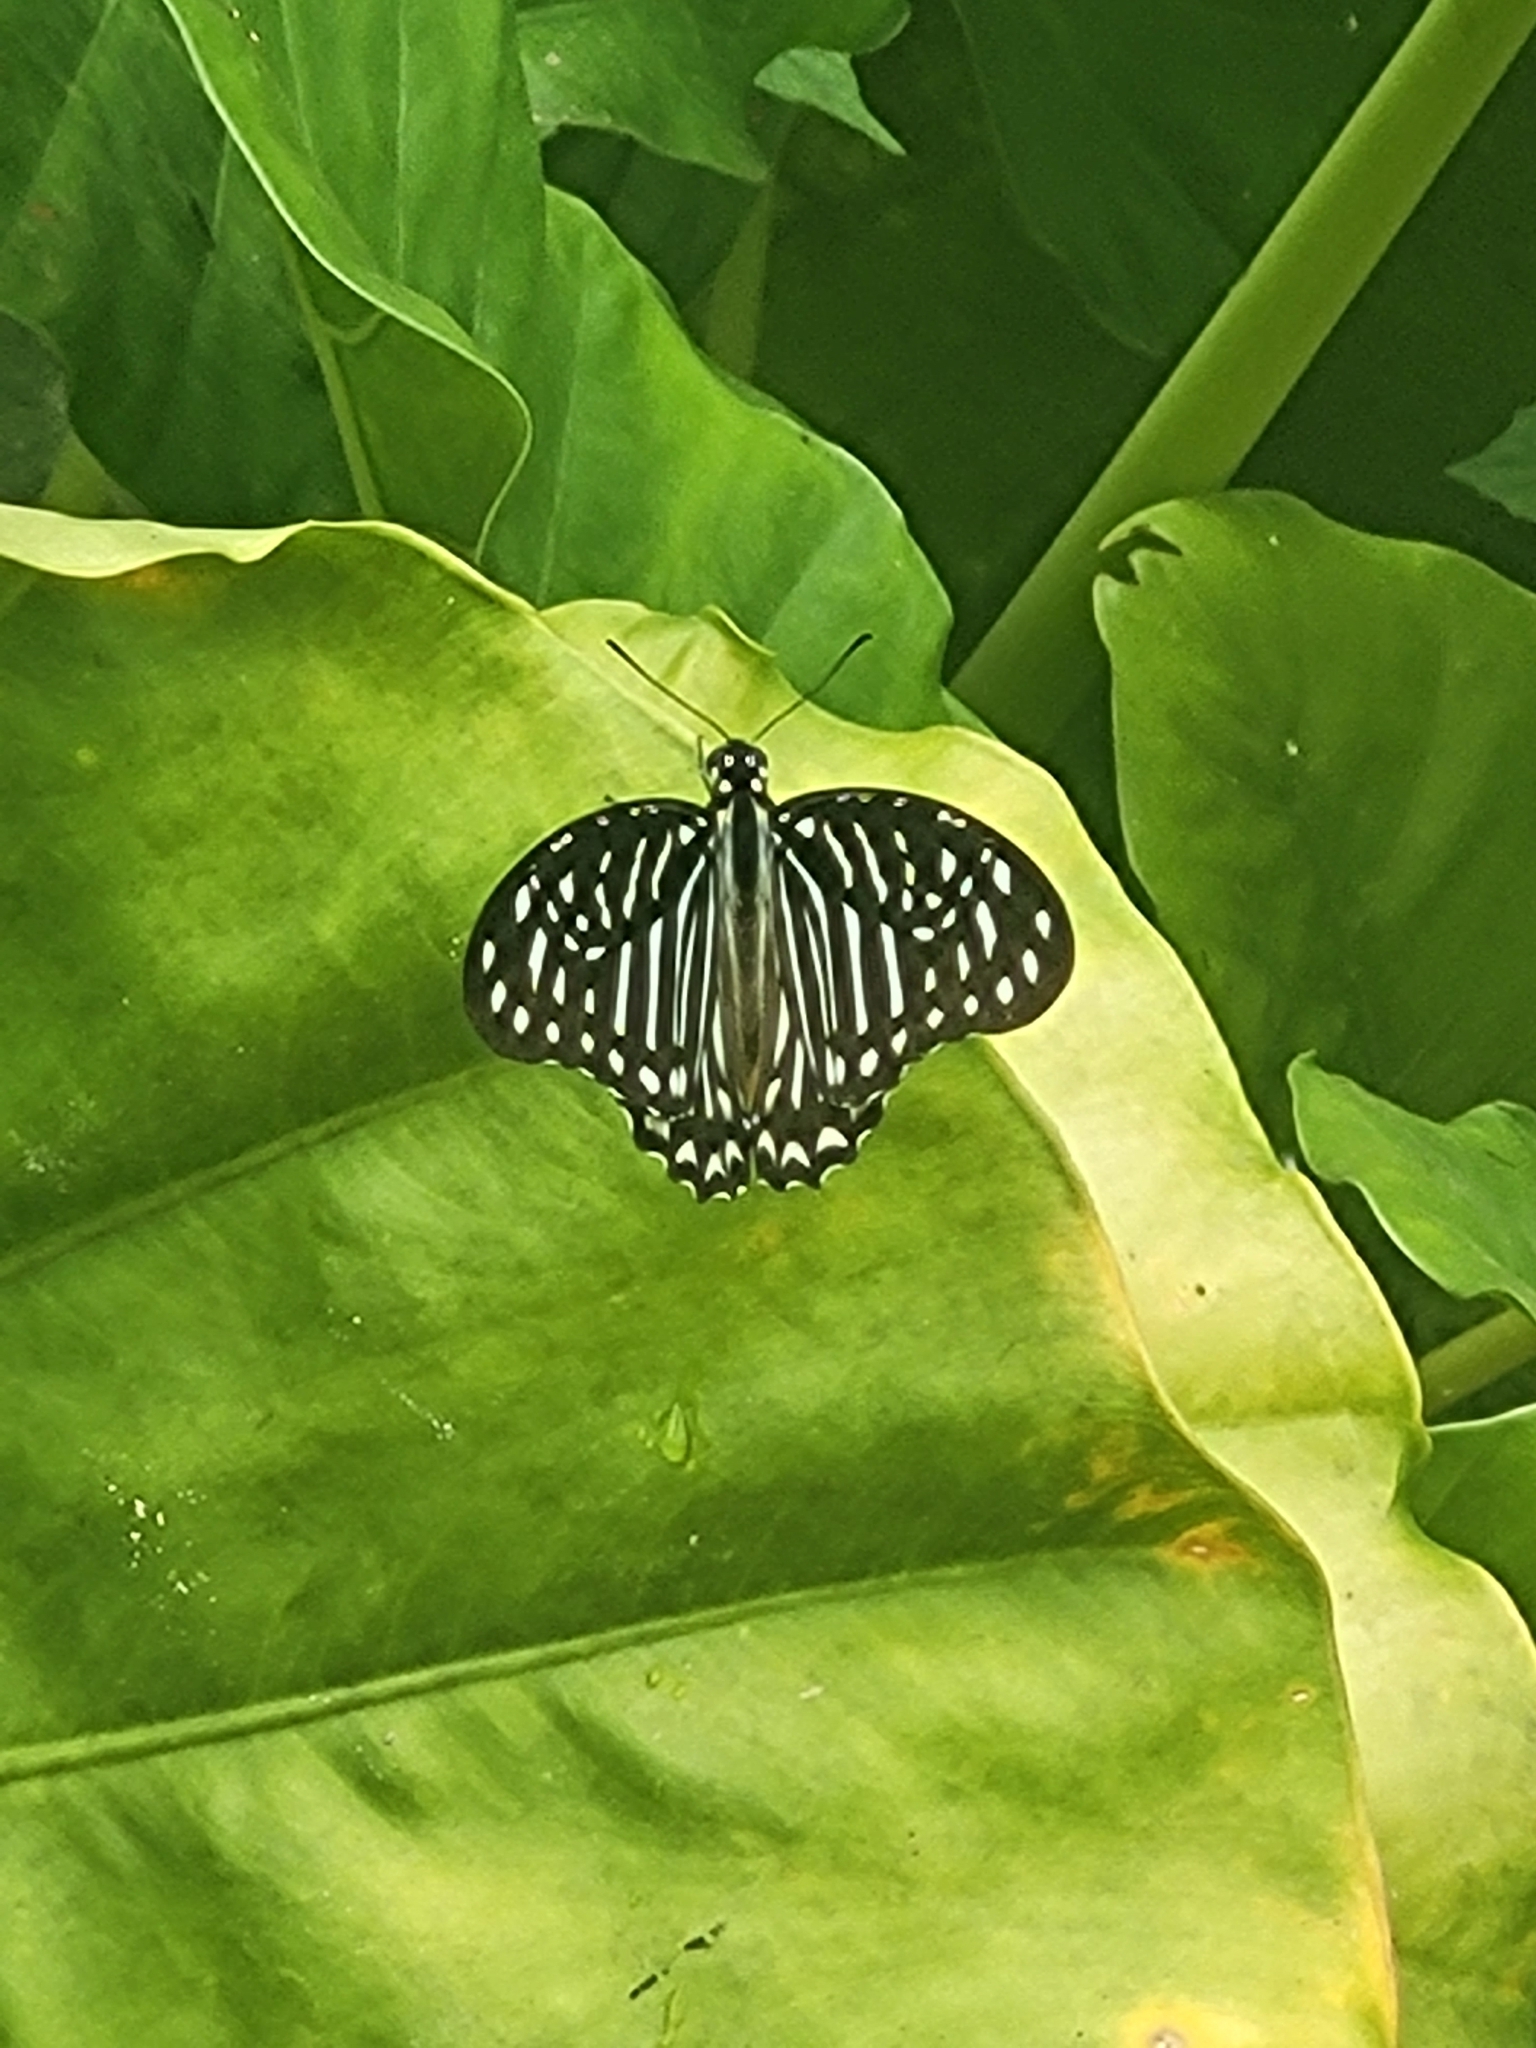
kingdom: Animalia
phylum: Arthropoda
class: Insecta
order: Lepidoptera
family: Papilionidae
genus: Graphium
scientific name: Graphium macareus
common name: Lesser zebra
